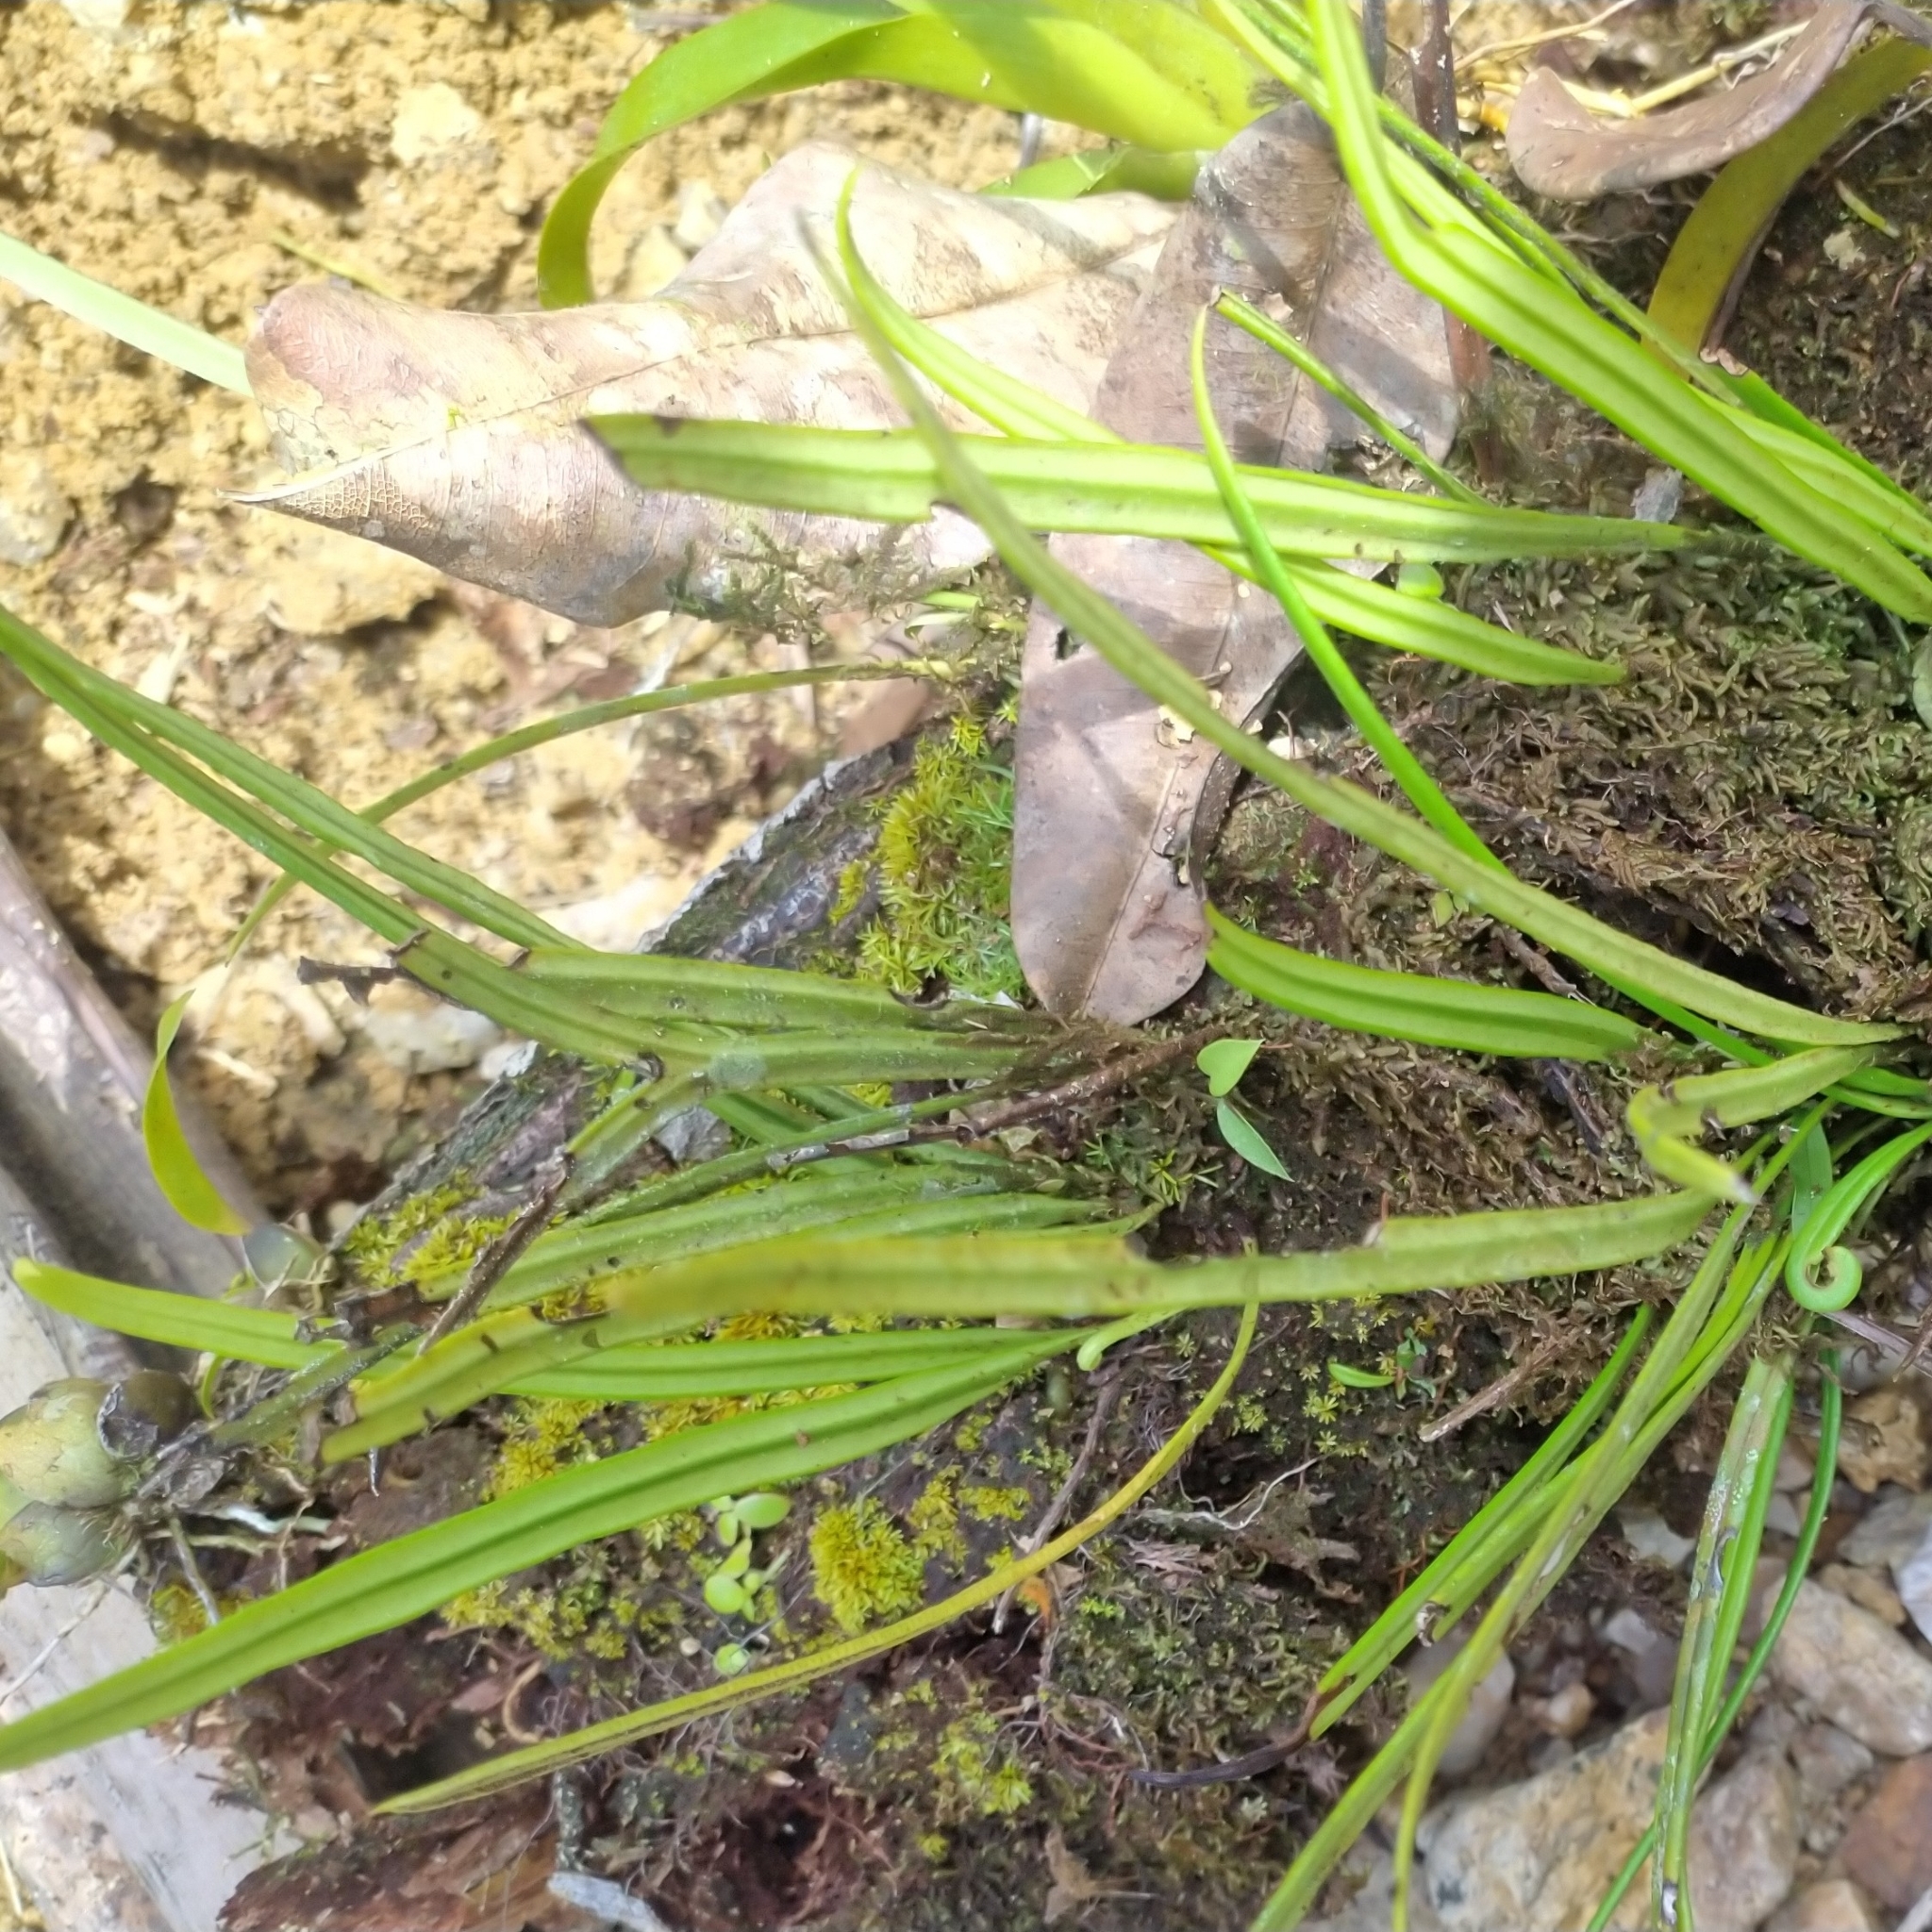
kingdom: Plantae
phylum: Tracheophyta
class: Polypodiopsida
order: Polypodiales
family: Dryopteridaceae
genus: Elaphoglossum
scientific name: Elaphoglossum glabellum
